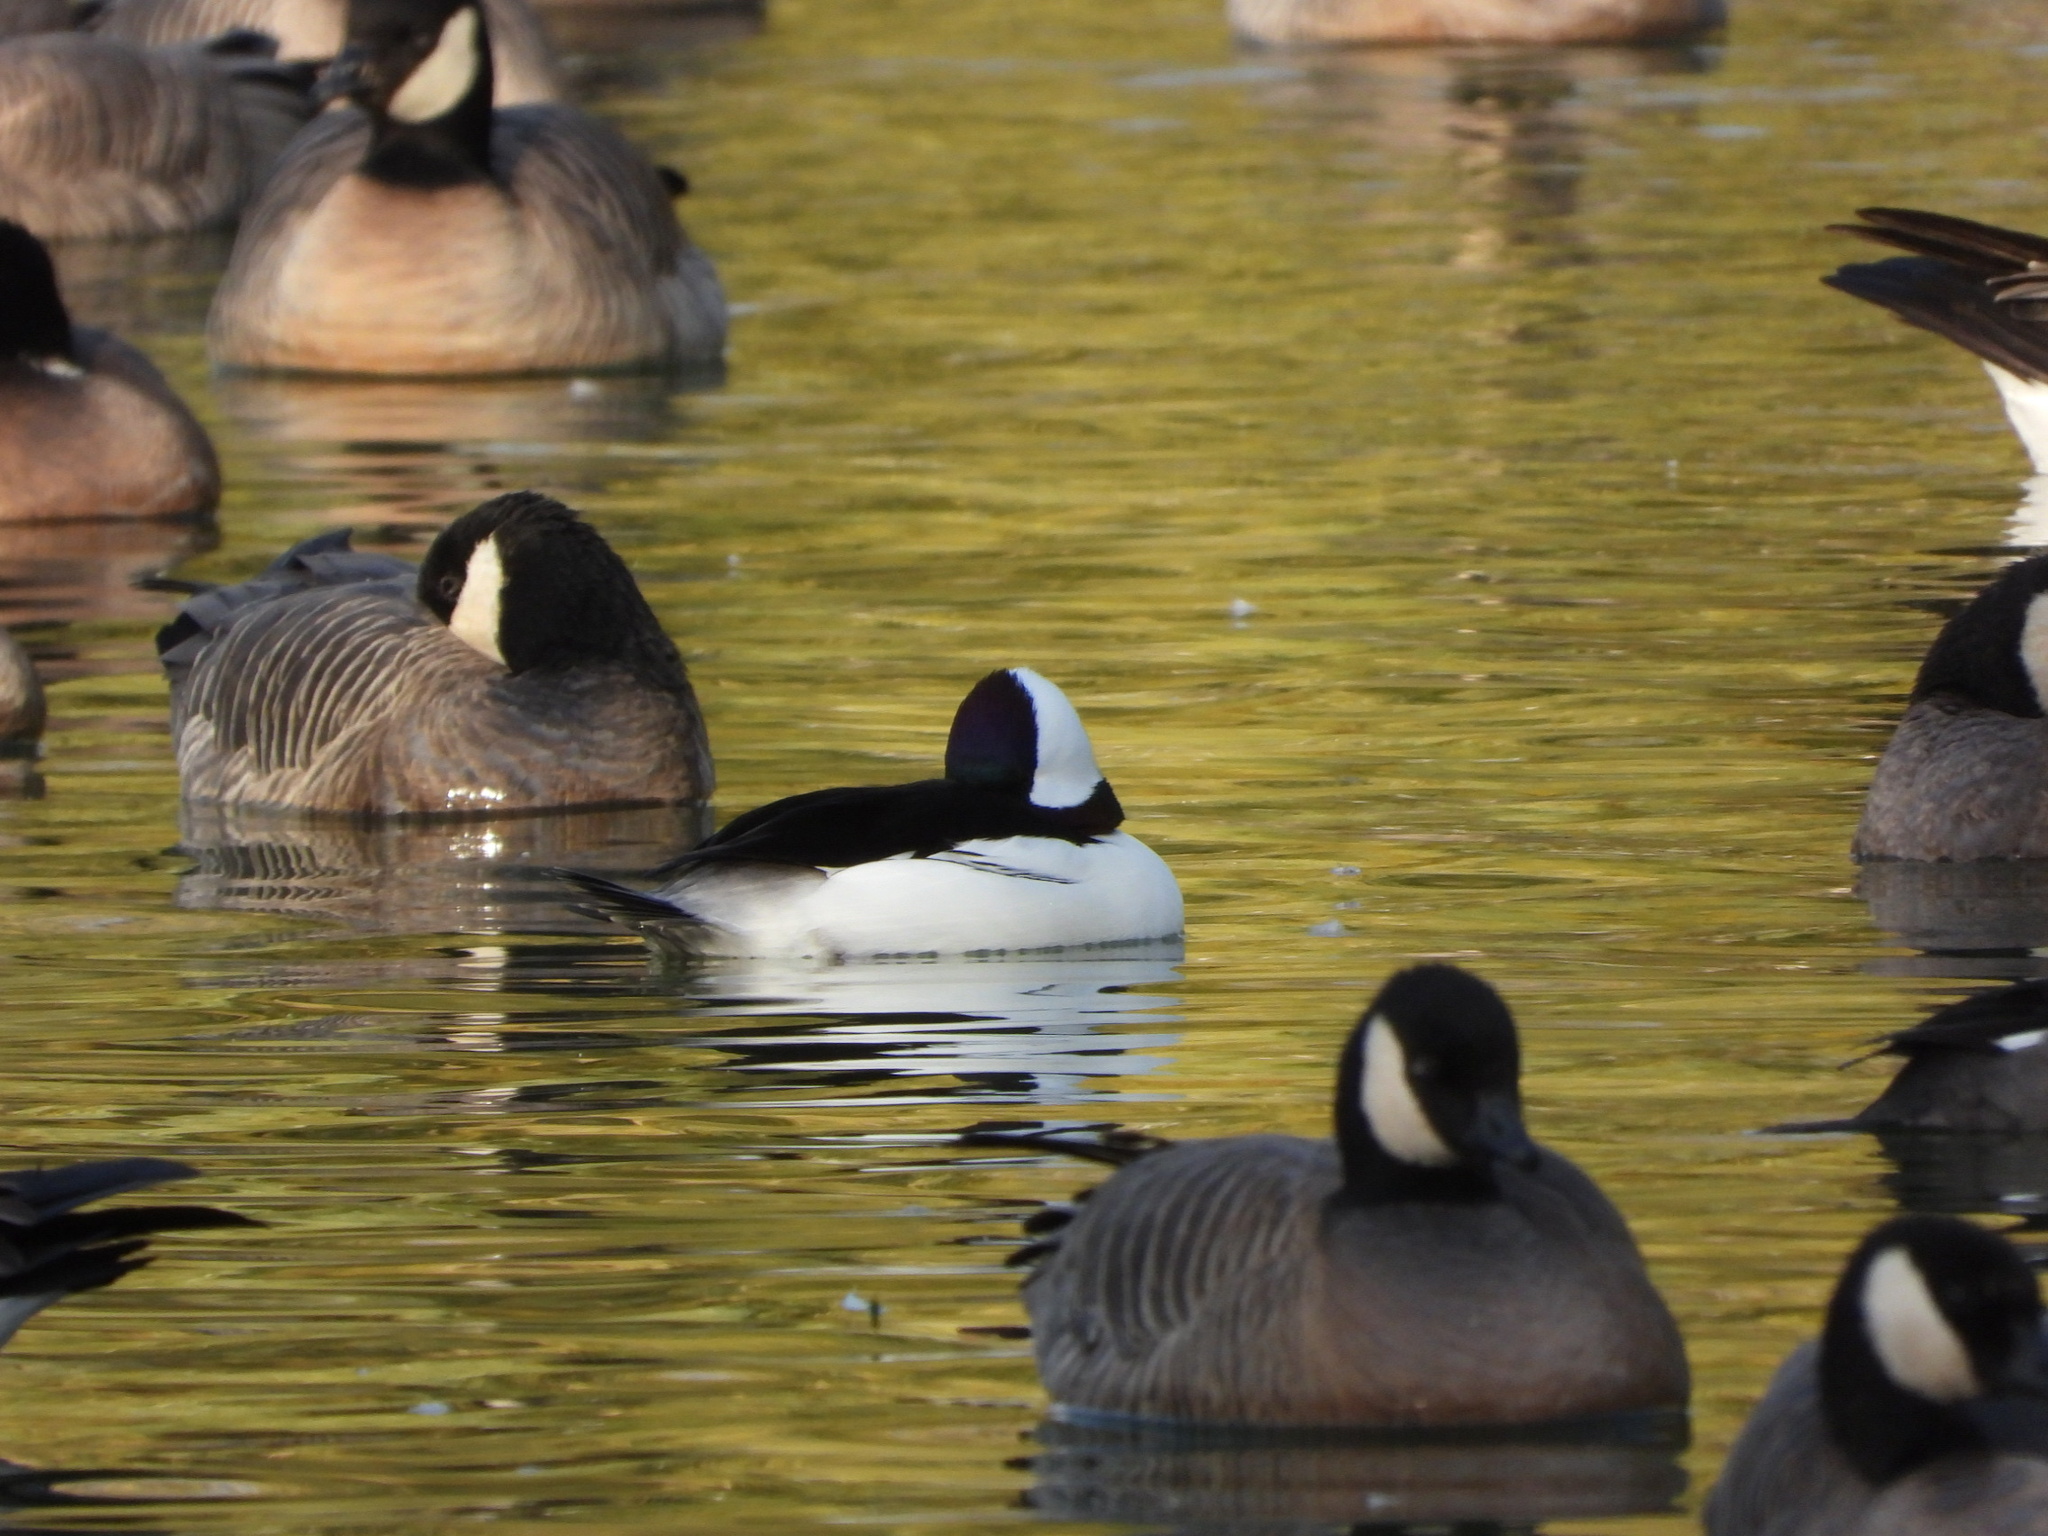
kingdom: Animalia
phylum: Chordata
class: Aves
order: Anseriformes
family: Anatidae
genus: Bucephala
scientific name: Bucephala albeola
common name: Bufflehead
